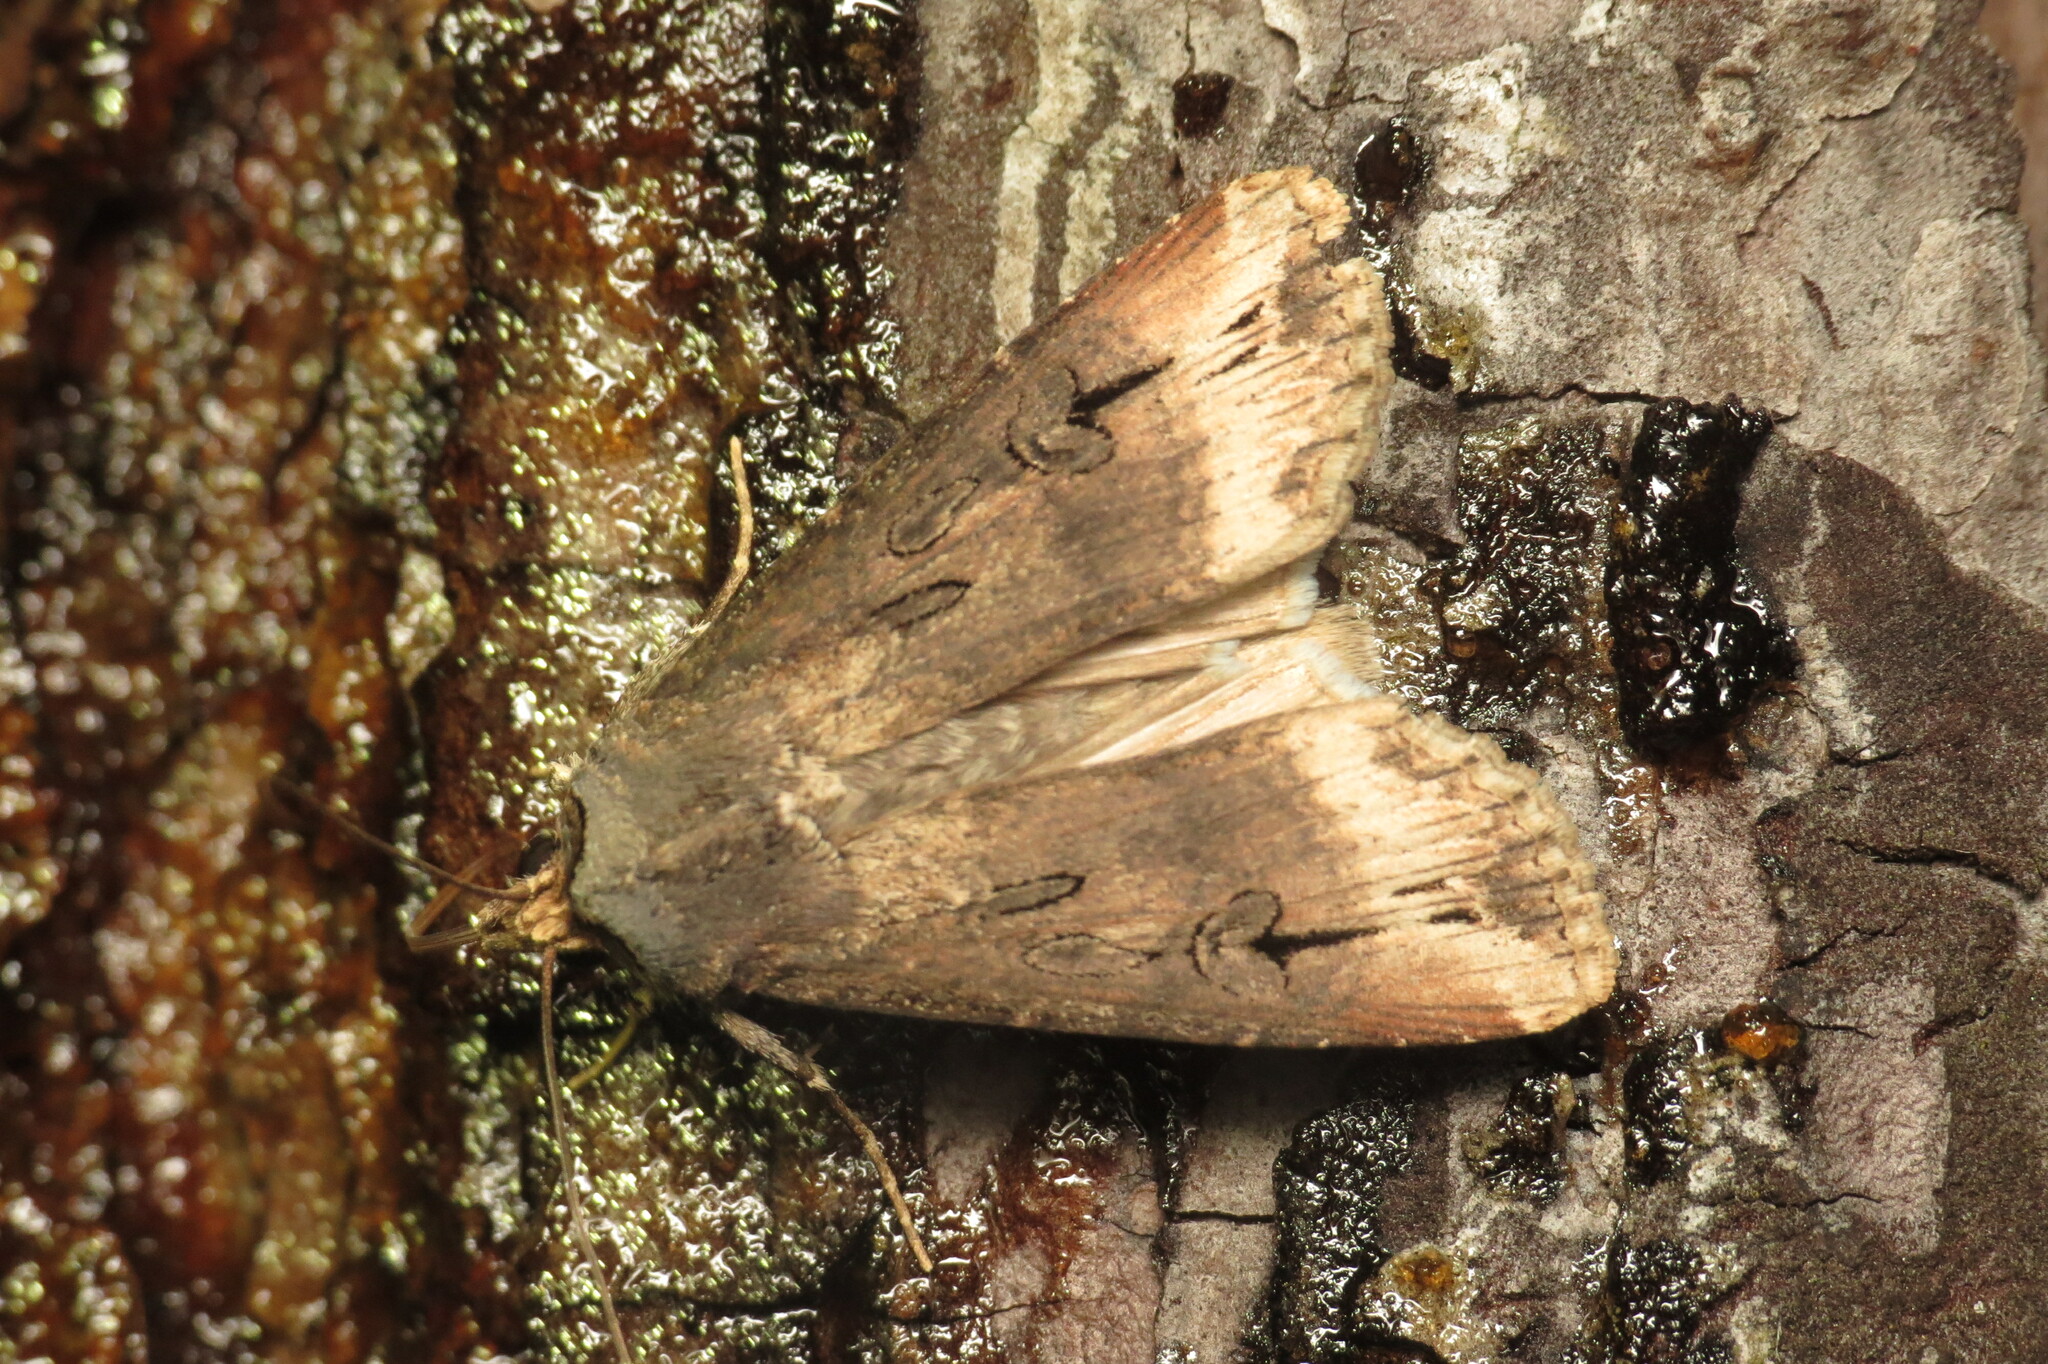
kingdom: Animalia
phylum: Arthropoda
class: Insecta
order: Lepidoptera
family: Noctuidae
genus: Agrotis
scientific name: Agrotis ipsilon
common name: Dark sword-grass
